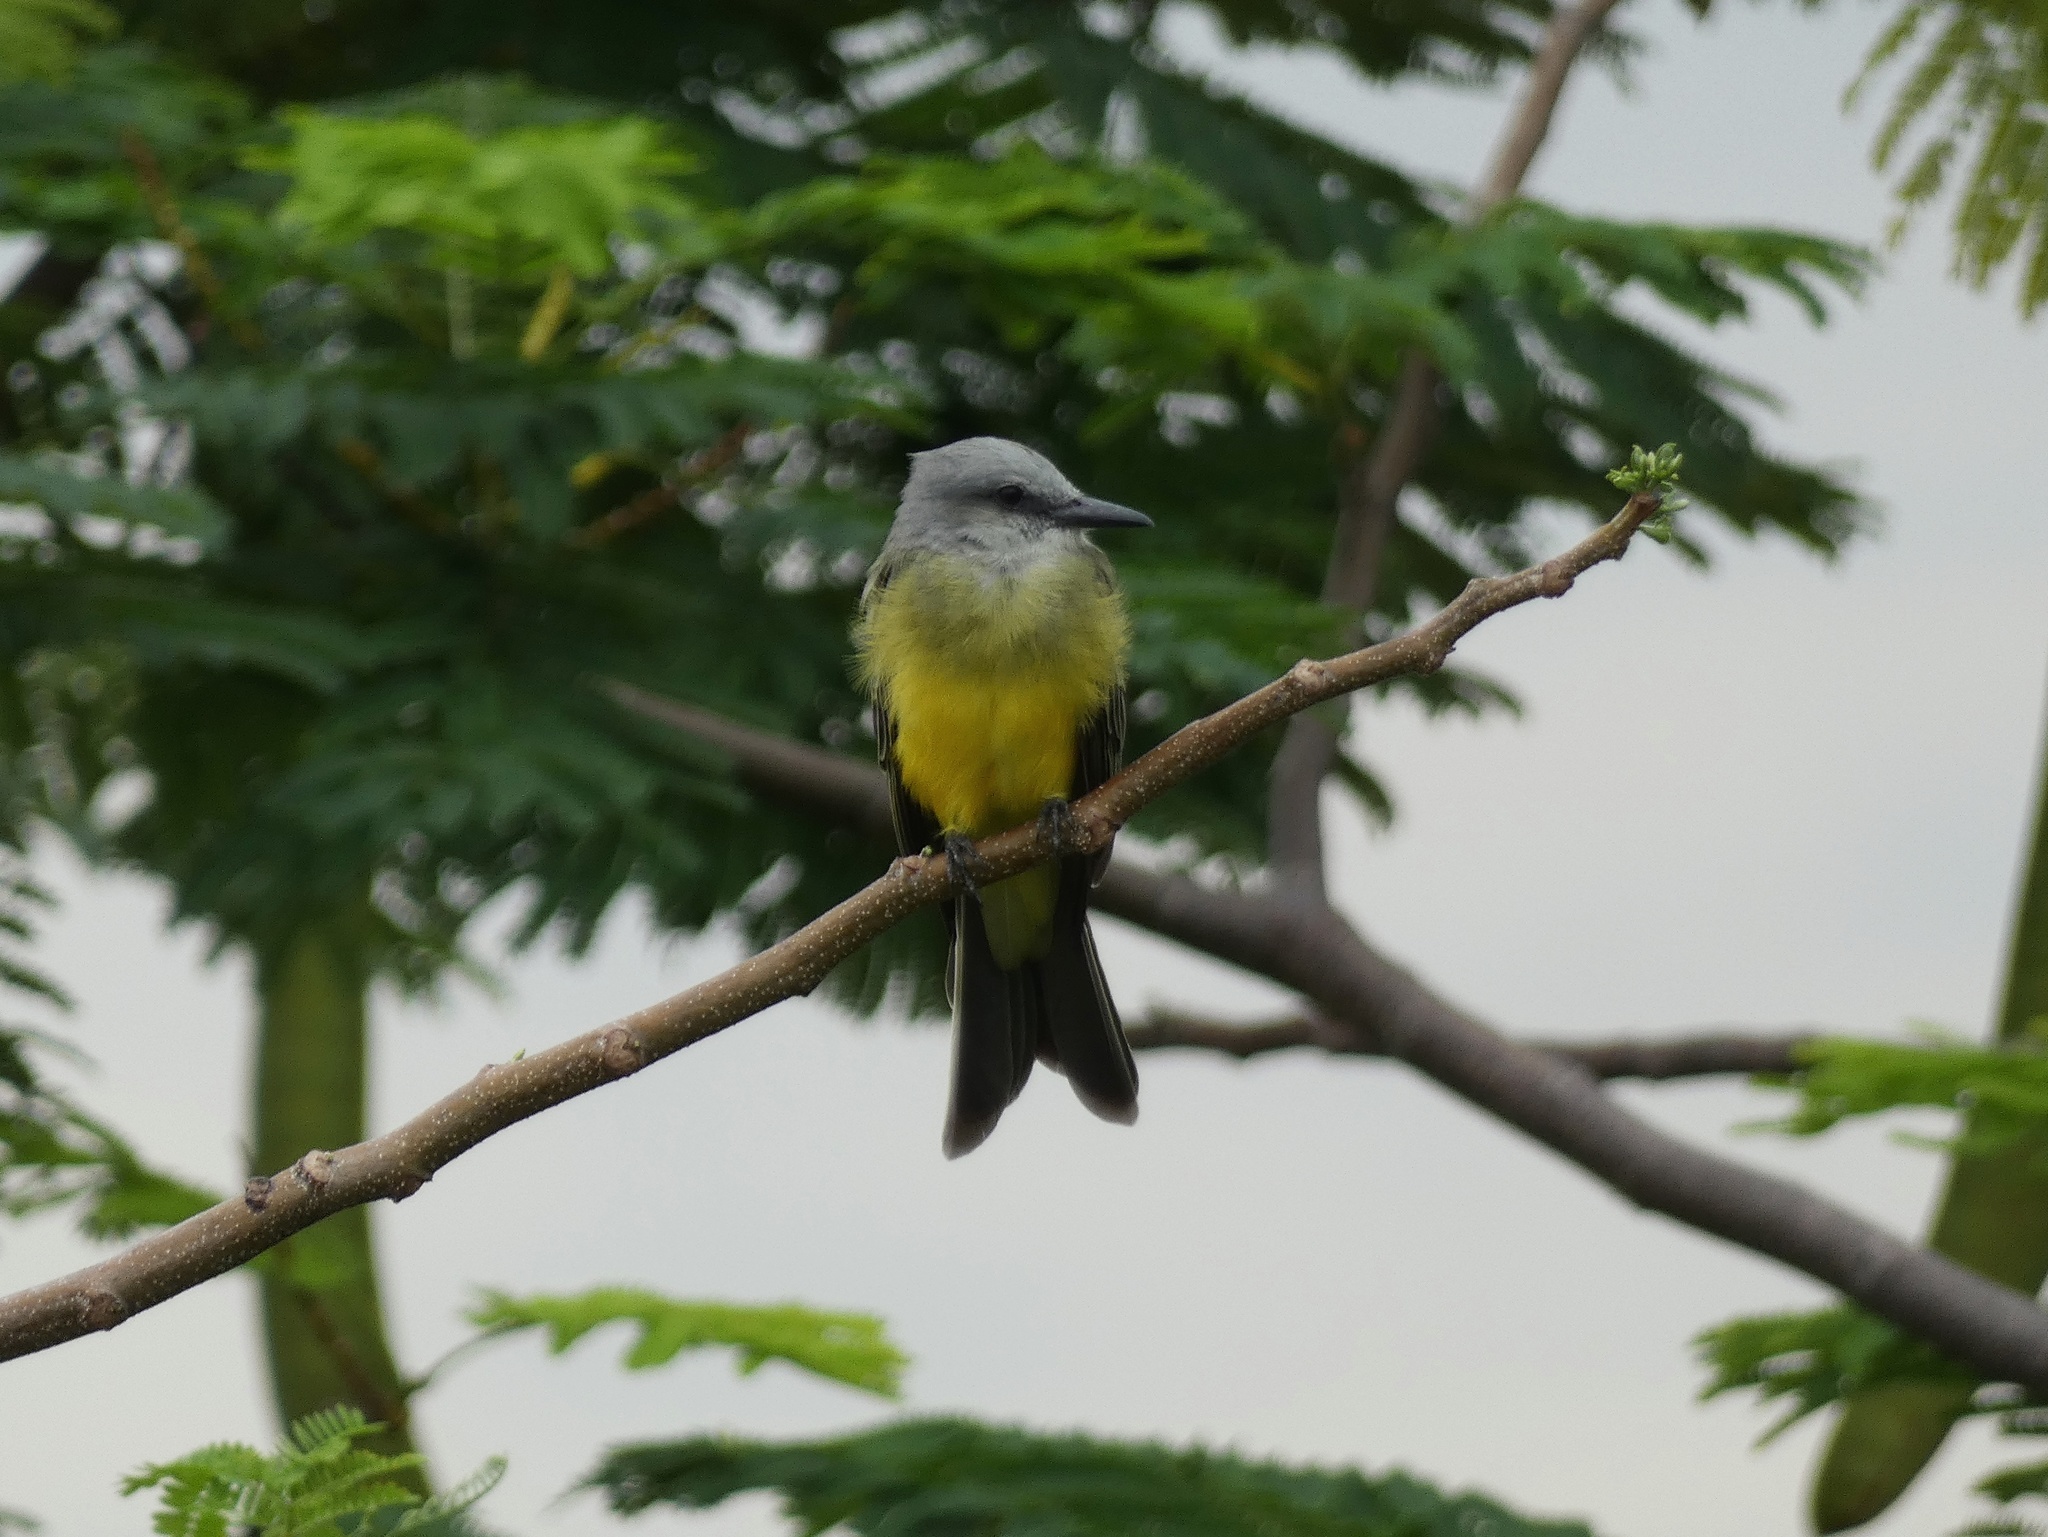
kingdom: Animalia
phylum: Chordata
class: Aves
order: Passeriformes
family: Tyrannidae
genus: Tyrannus
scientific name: Tyrannus melancholicus
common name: Tropical kingbird
